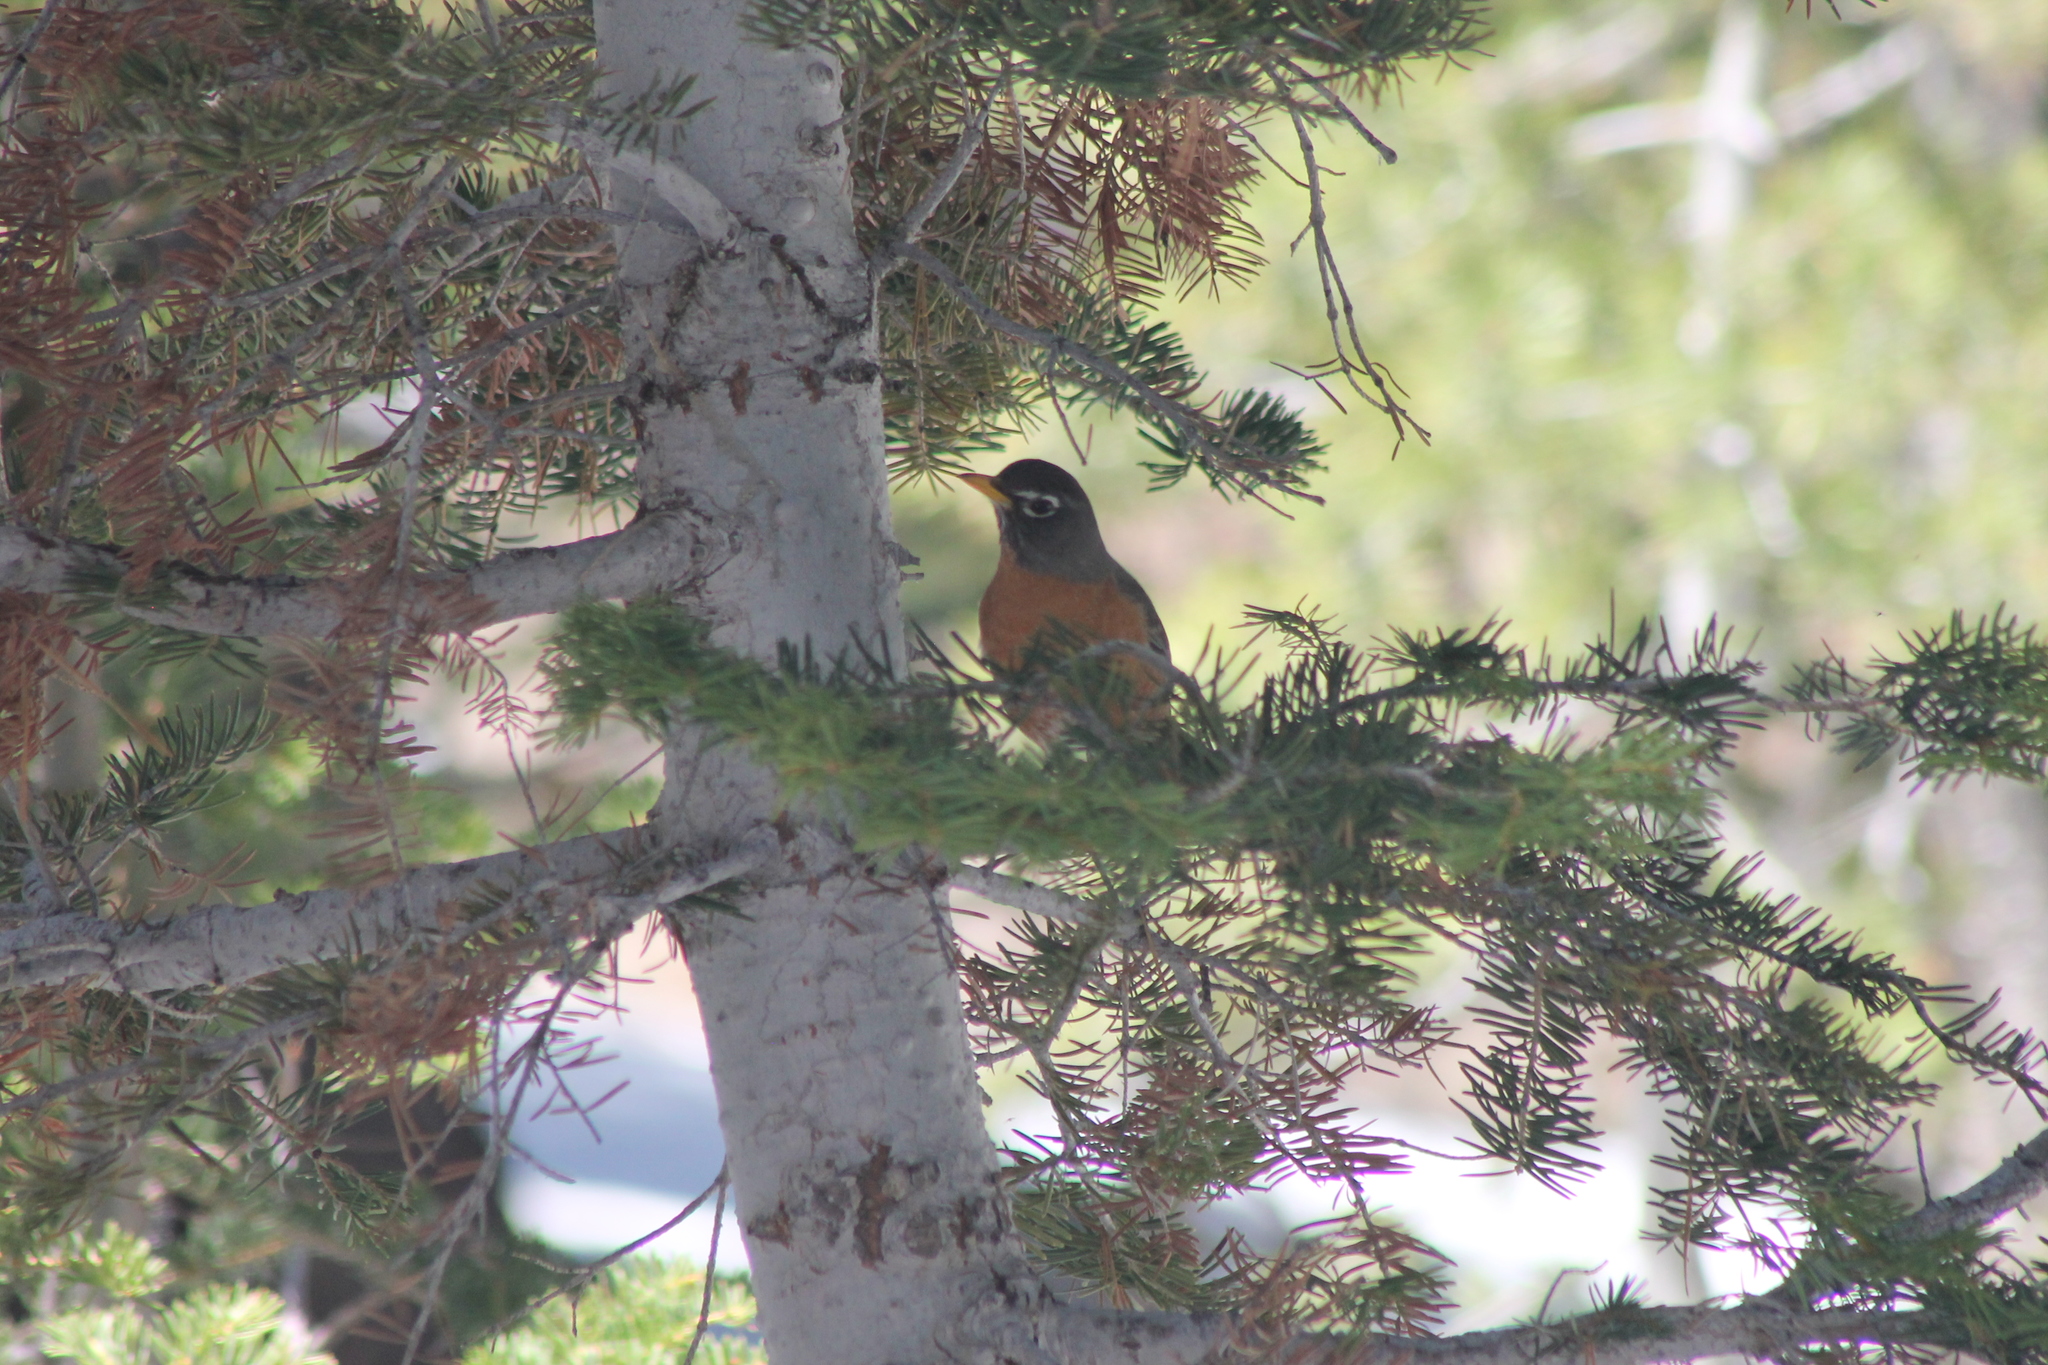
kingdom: Animalia
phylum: Chordata
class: Aves
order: Passeriformes
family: Turdidae
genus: Turdus
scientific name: Turdus migratorius
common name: American robin
